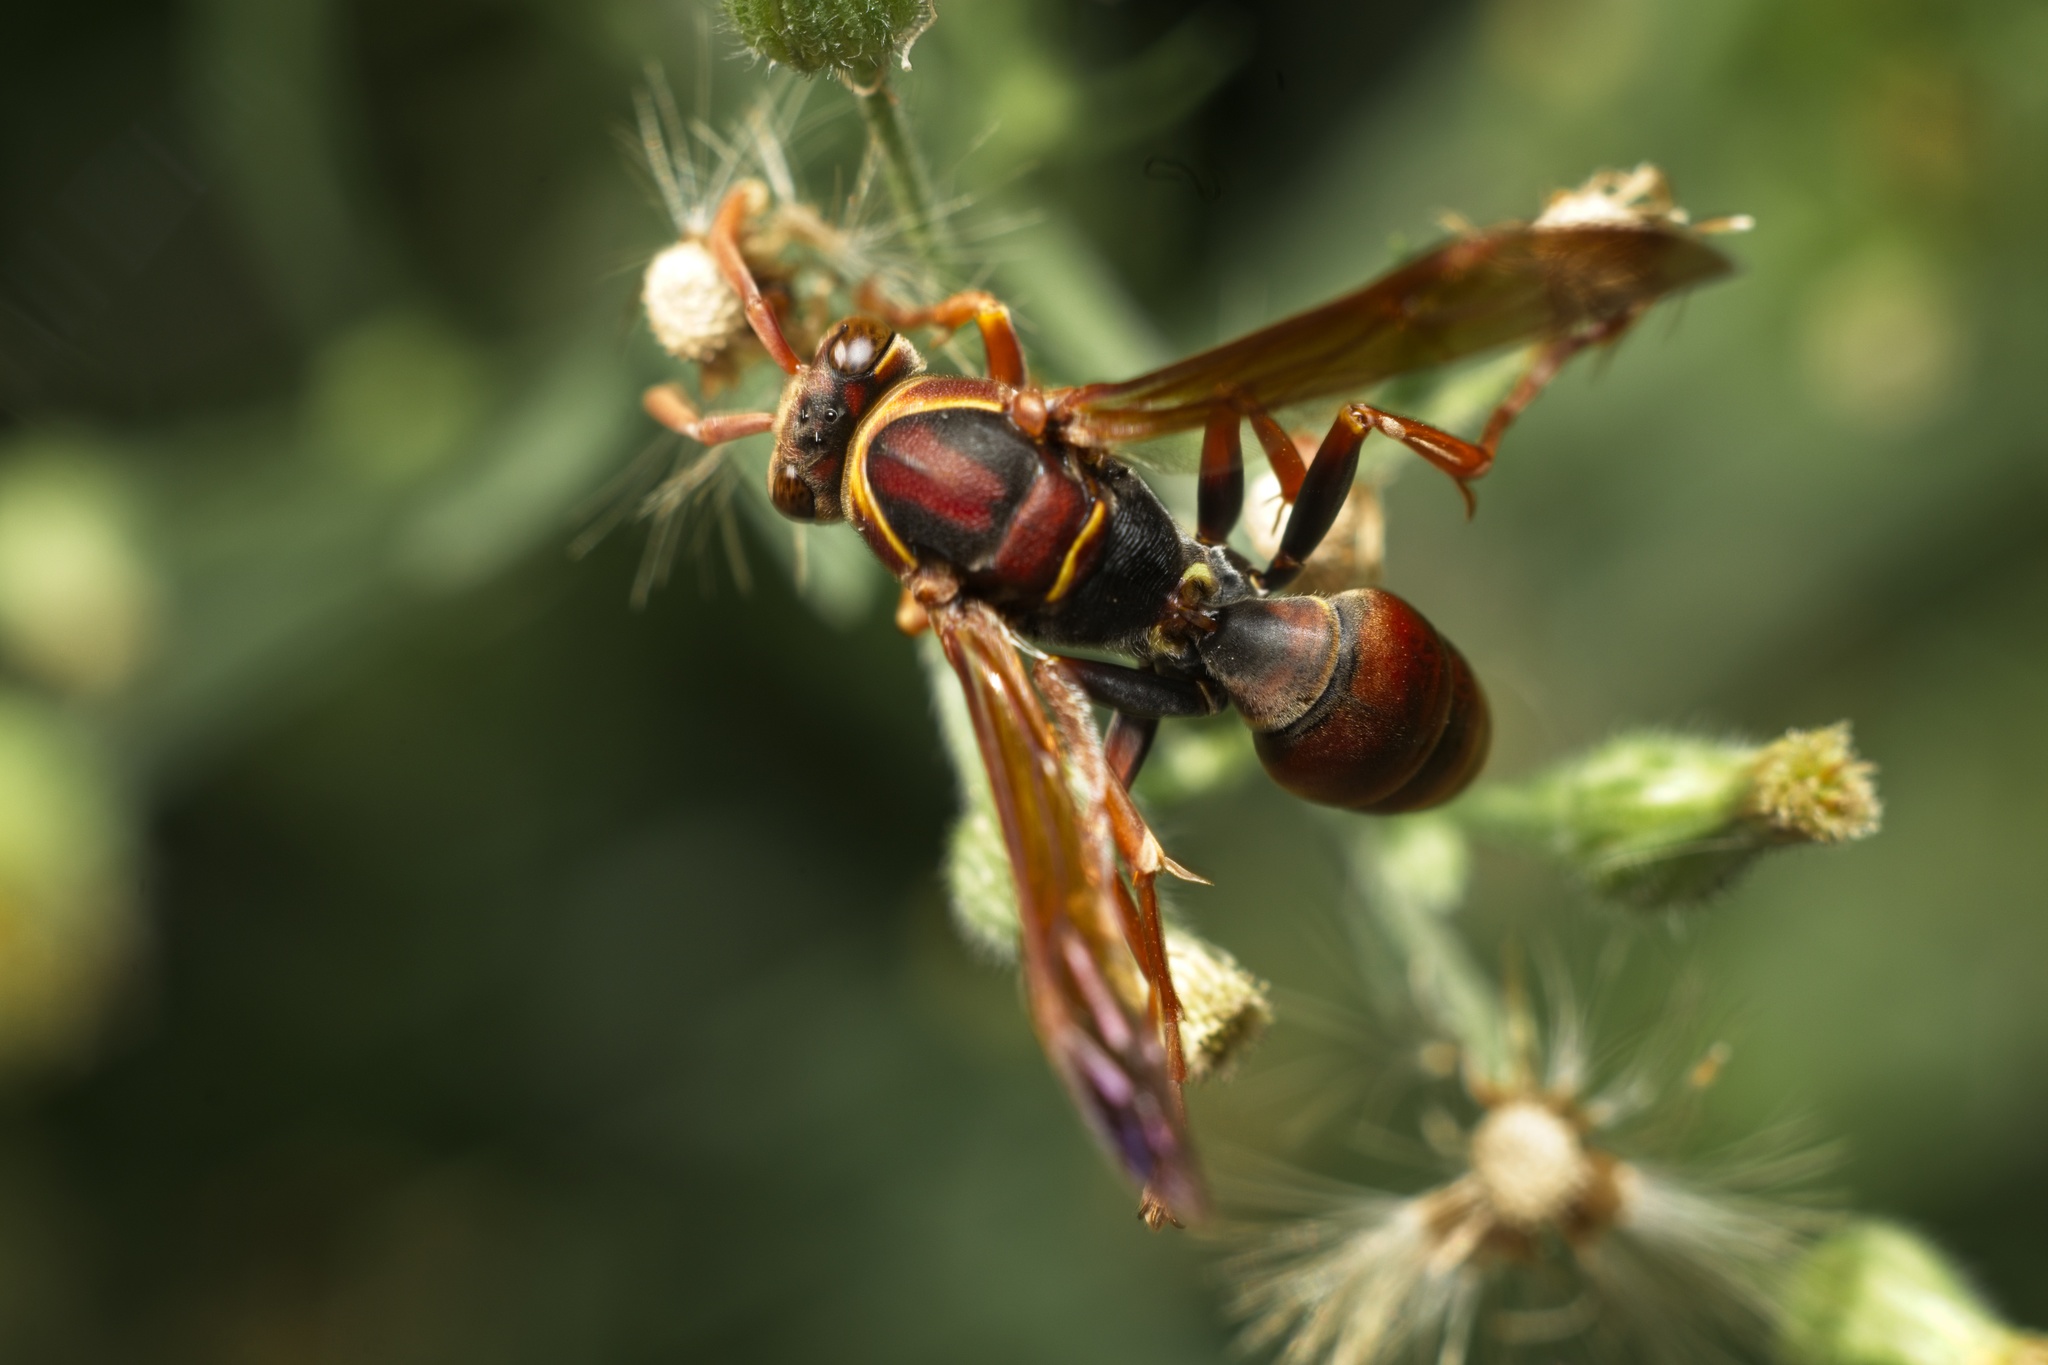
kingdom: Animalia
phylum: Arthropoda
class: Insecta
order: Hymenoptera
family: Eumenidae
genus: Polistes
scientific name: Polistes humilis
